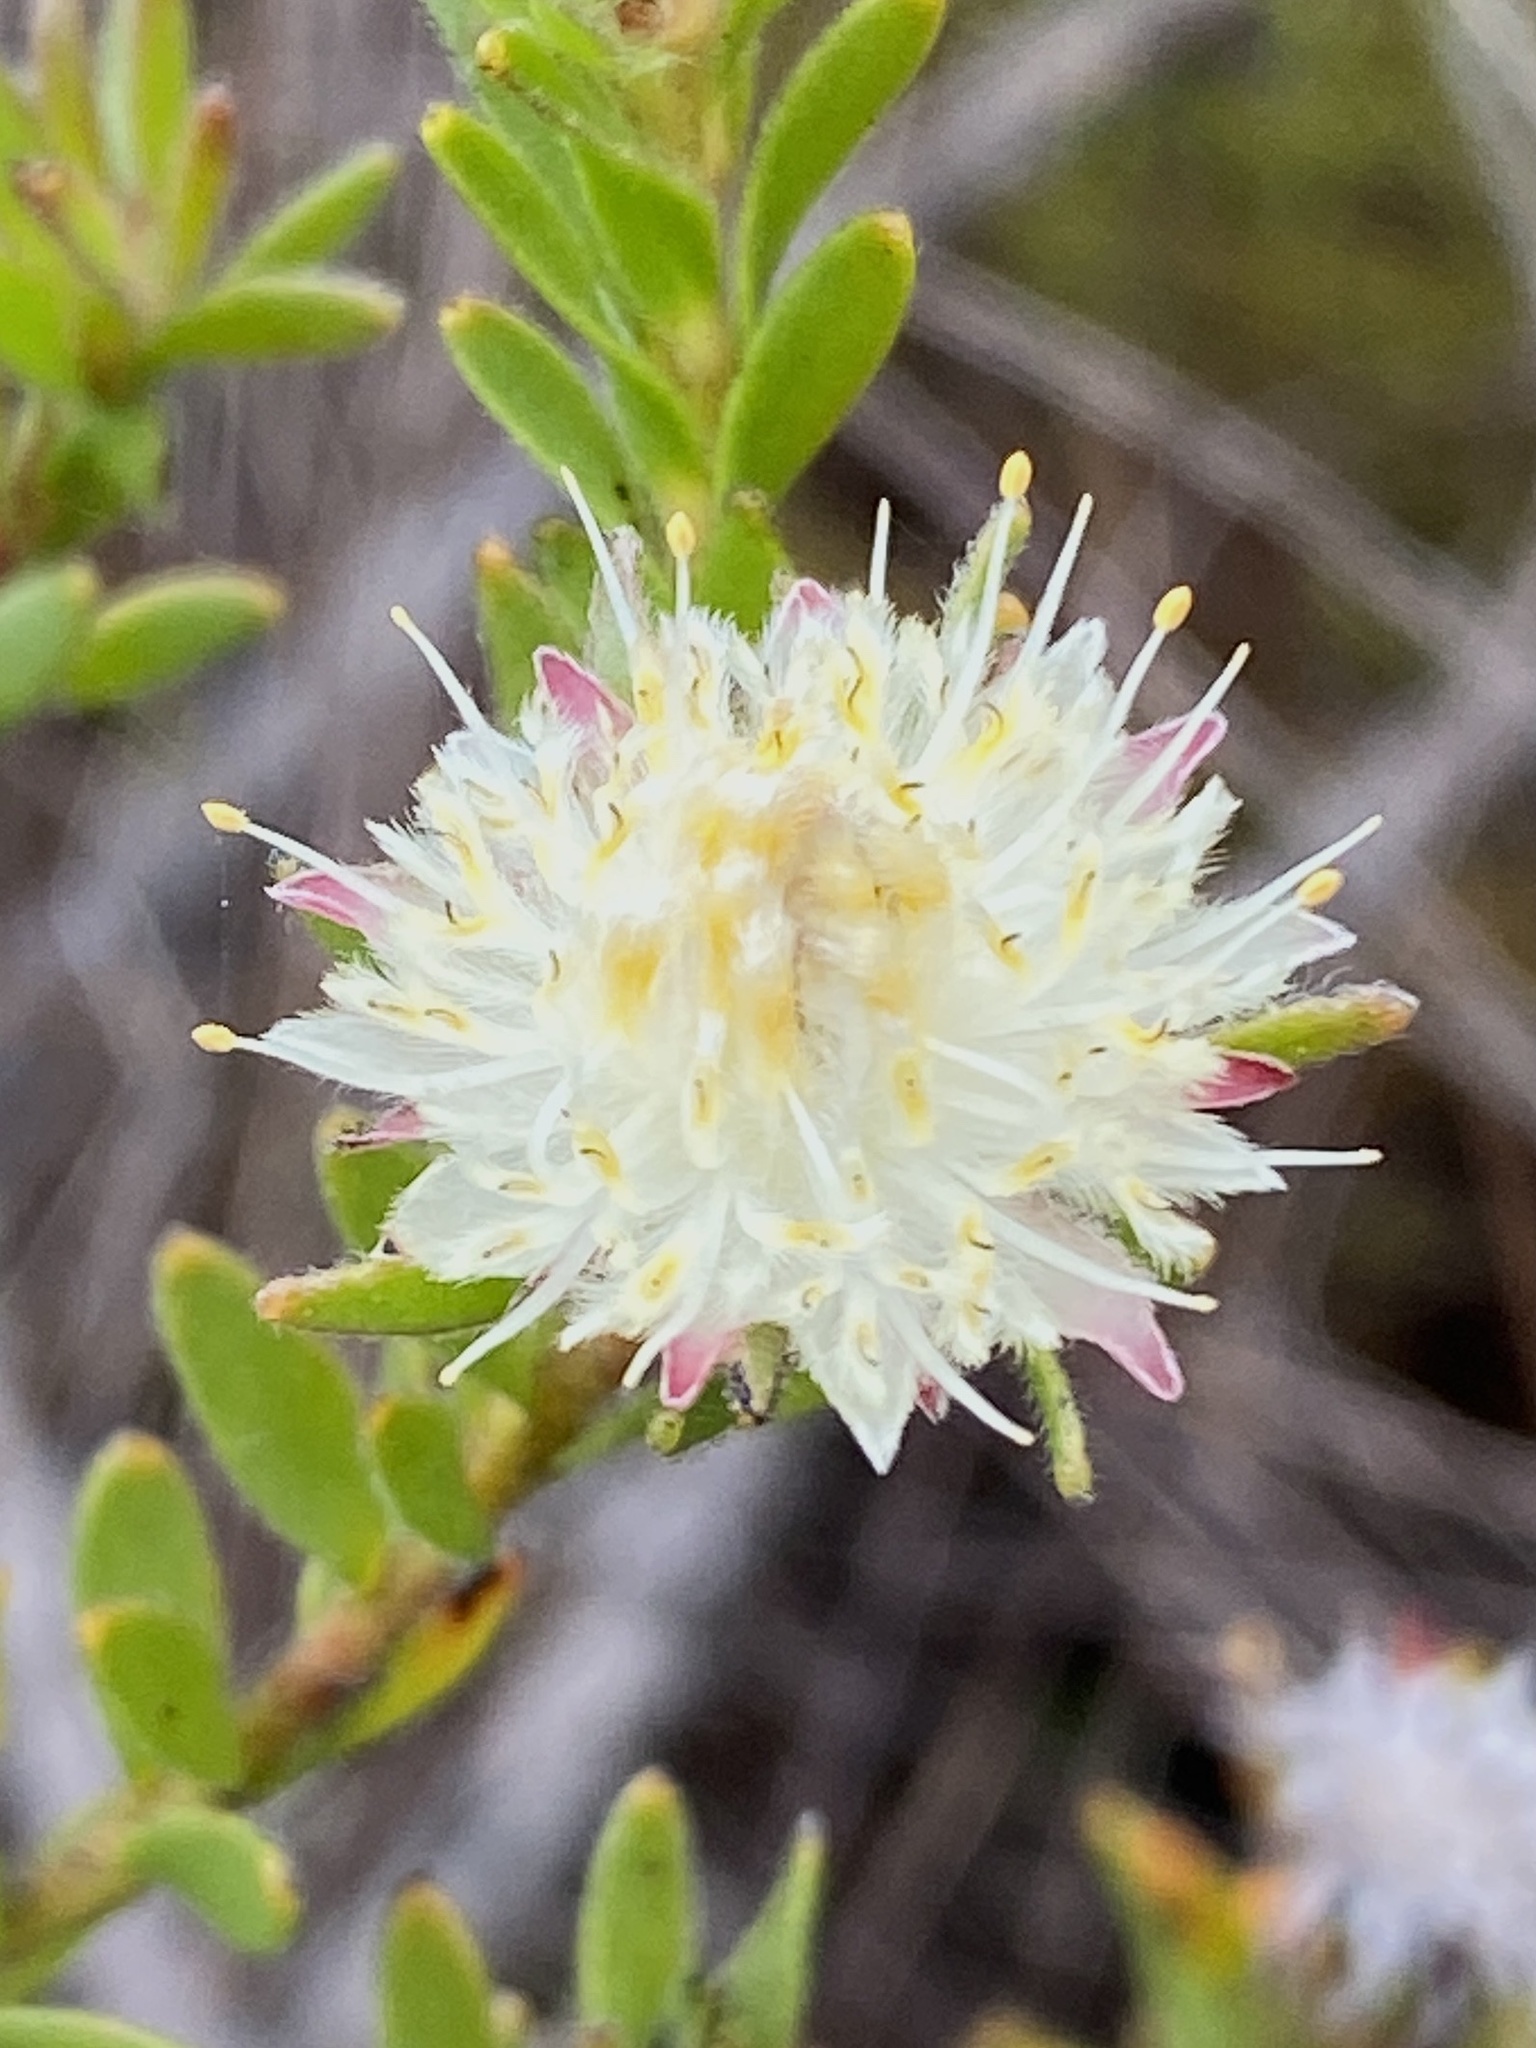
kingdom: Plantae
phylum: Tracheophyta
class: Magnoliopsida
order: Proteales
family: Proteaceae
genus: Diastella
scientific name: Diastella fraterna
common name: Palmiet silkypuff
